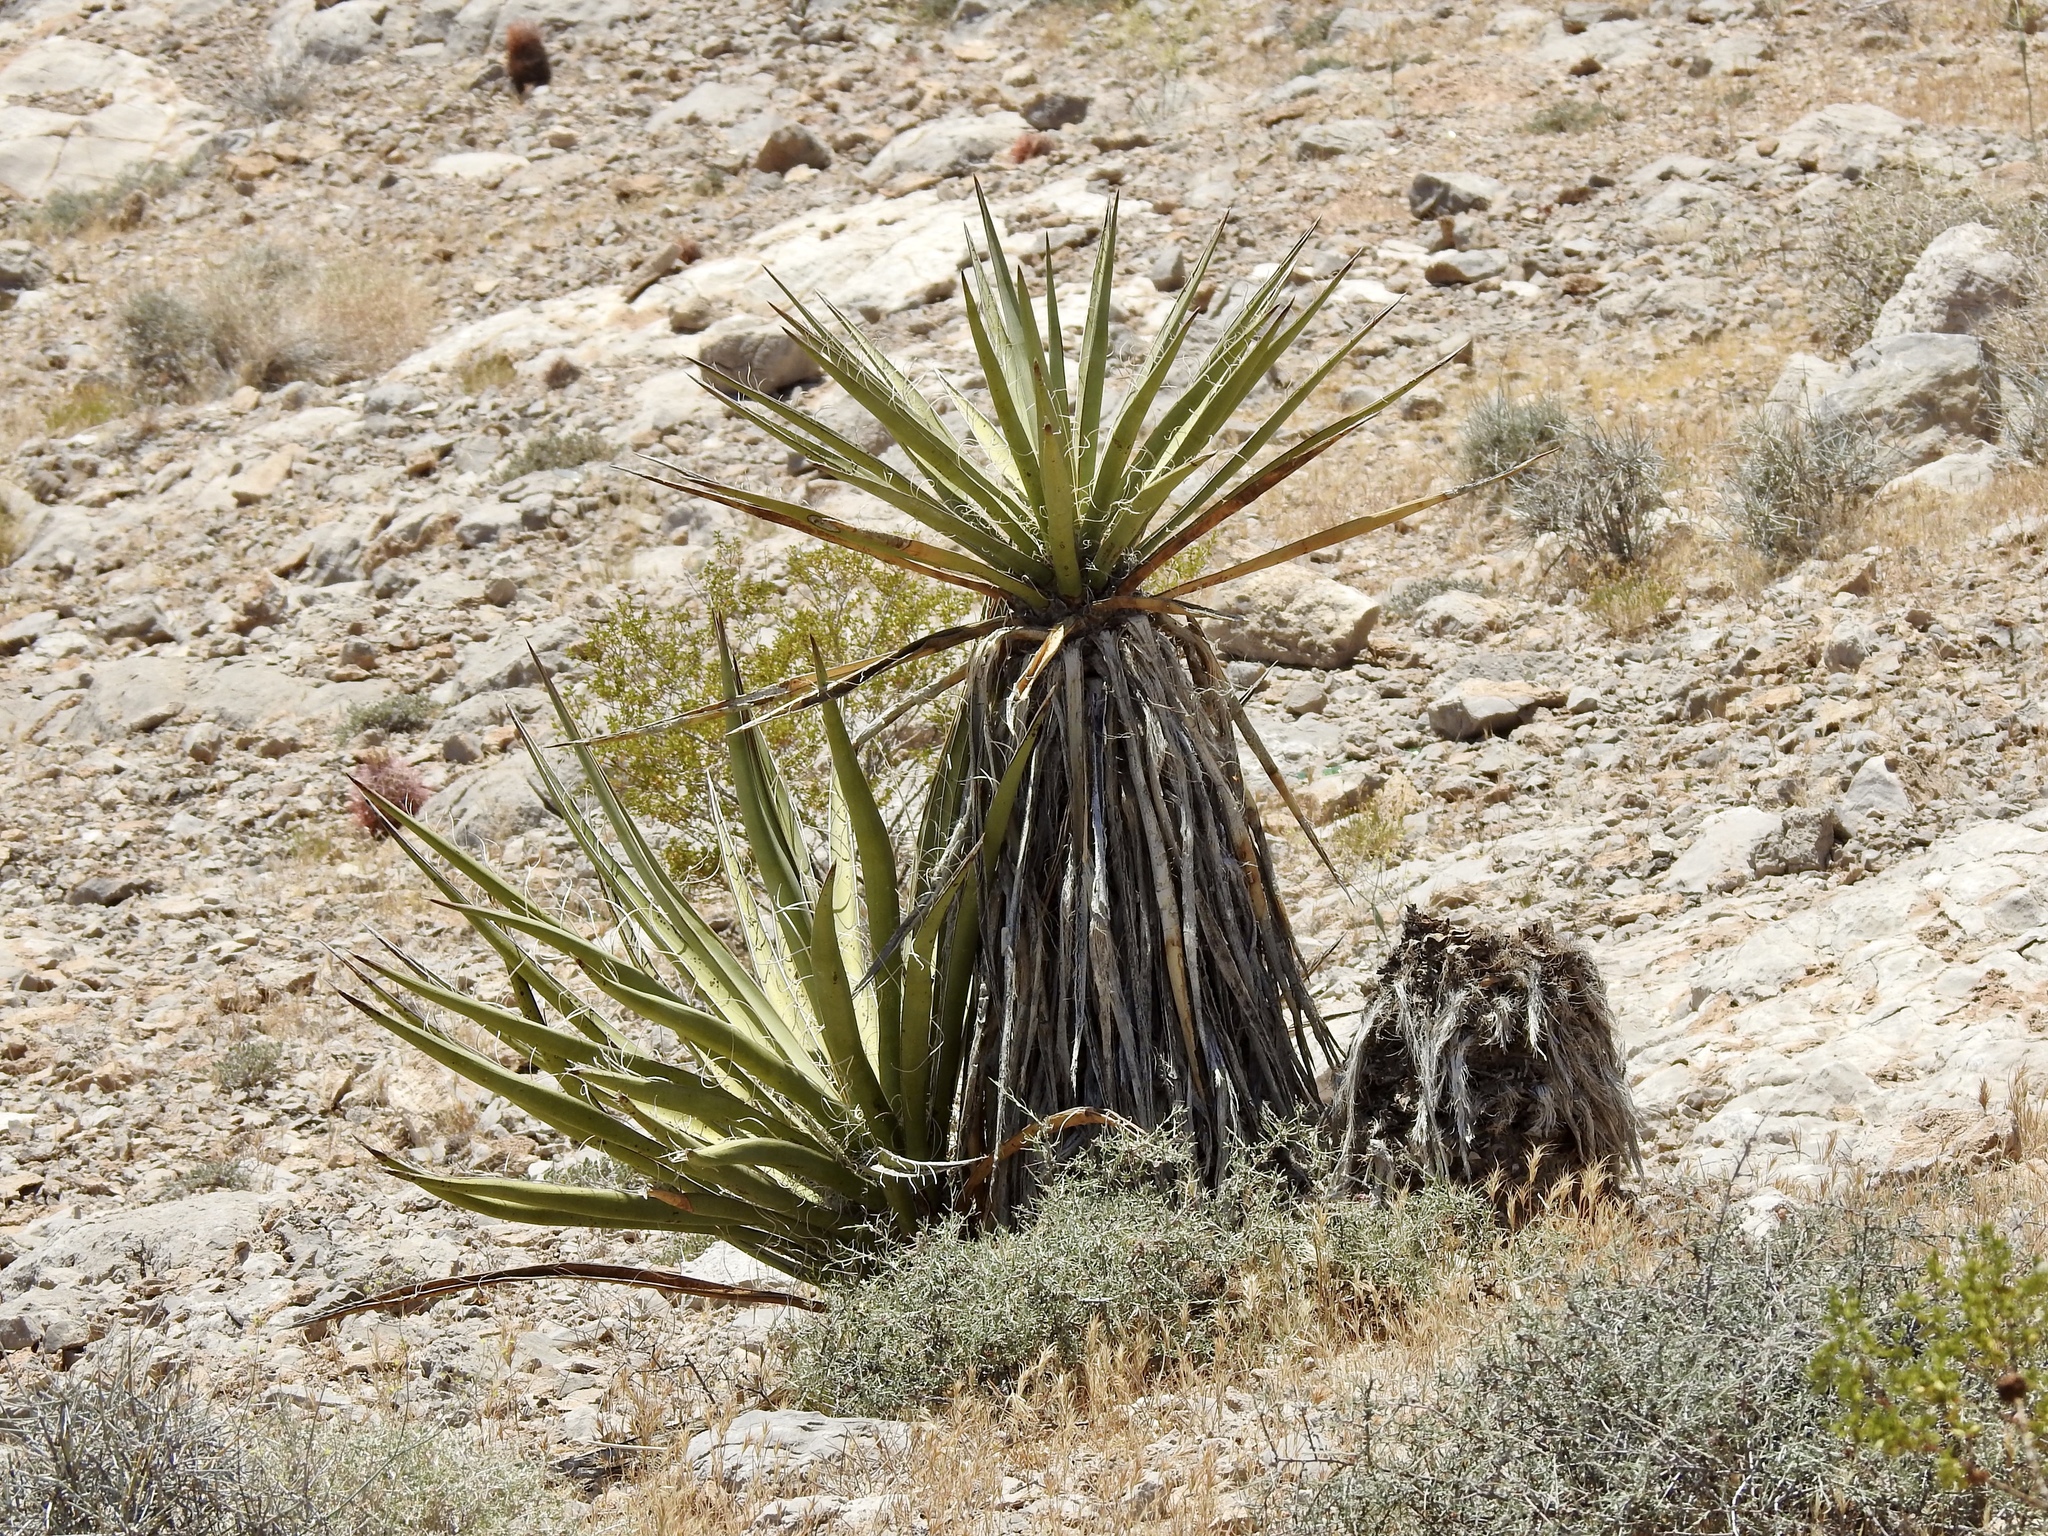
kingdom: Plantae
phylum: Tracheophyta
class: Liliopsida
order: Asparagales
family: Asparagaceae
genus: Yucca
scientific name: Yucca schidigera
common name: Mojave yucca
